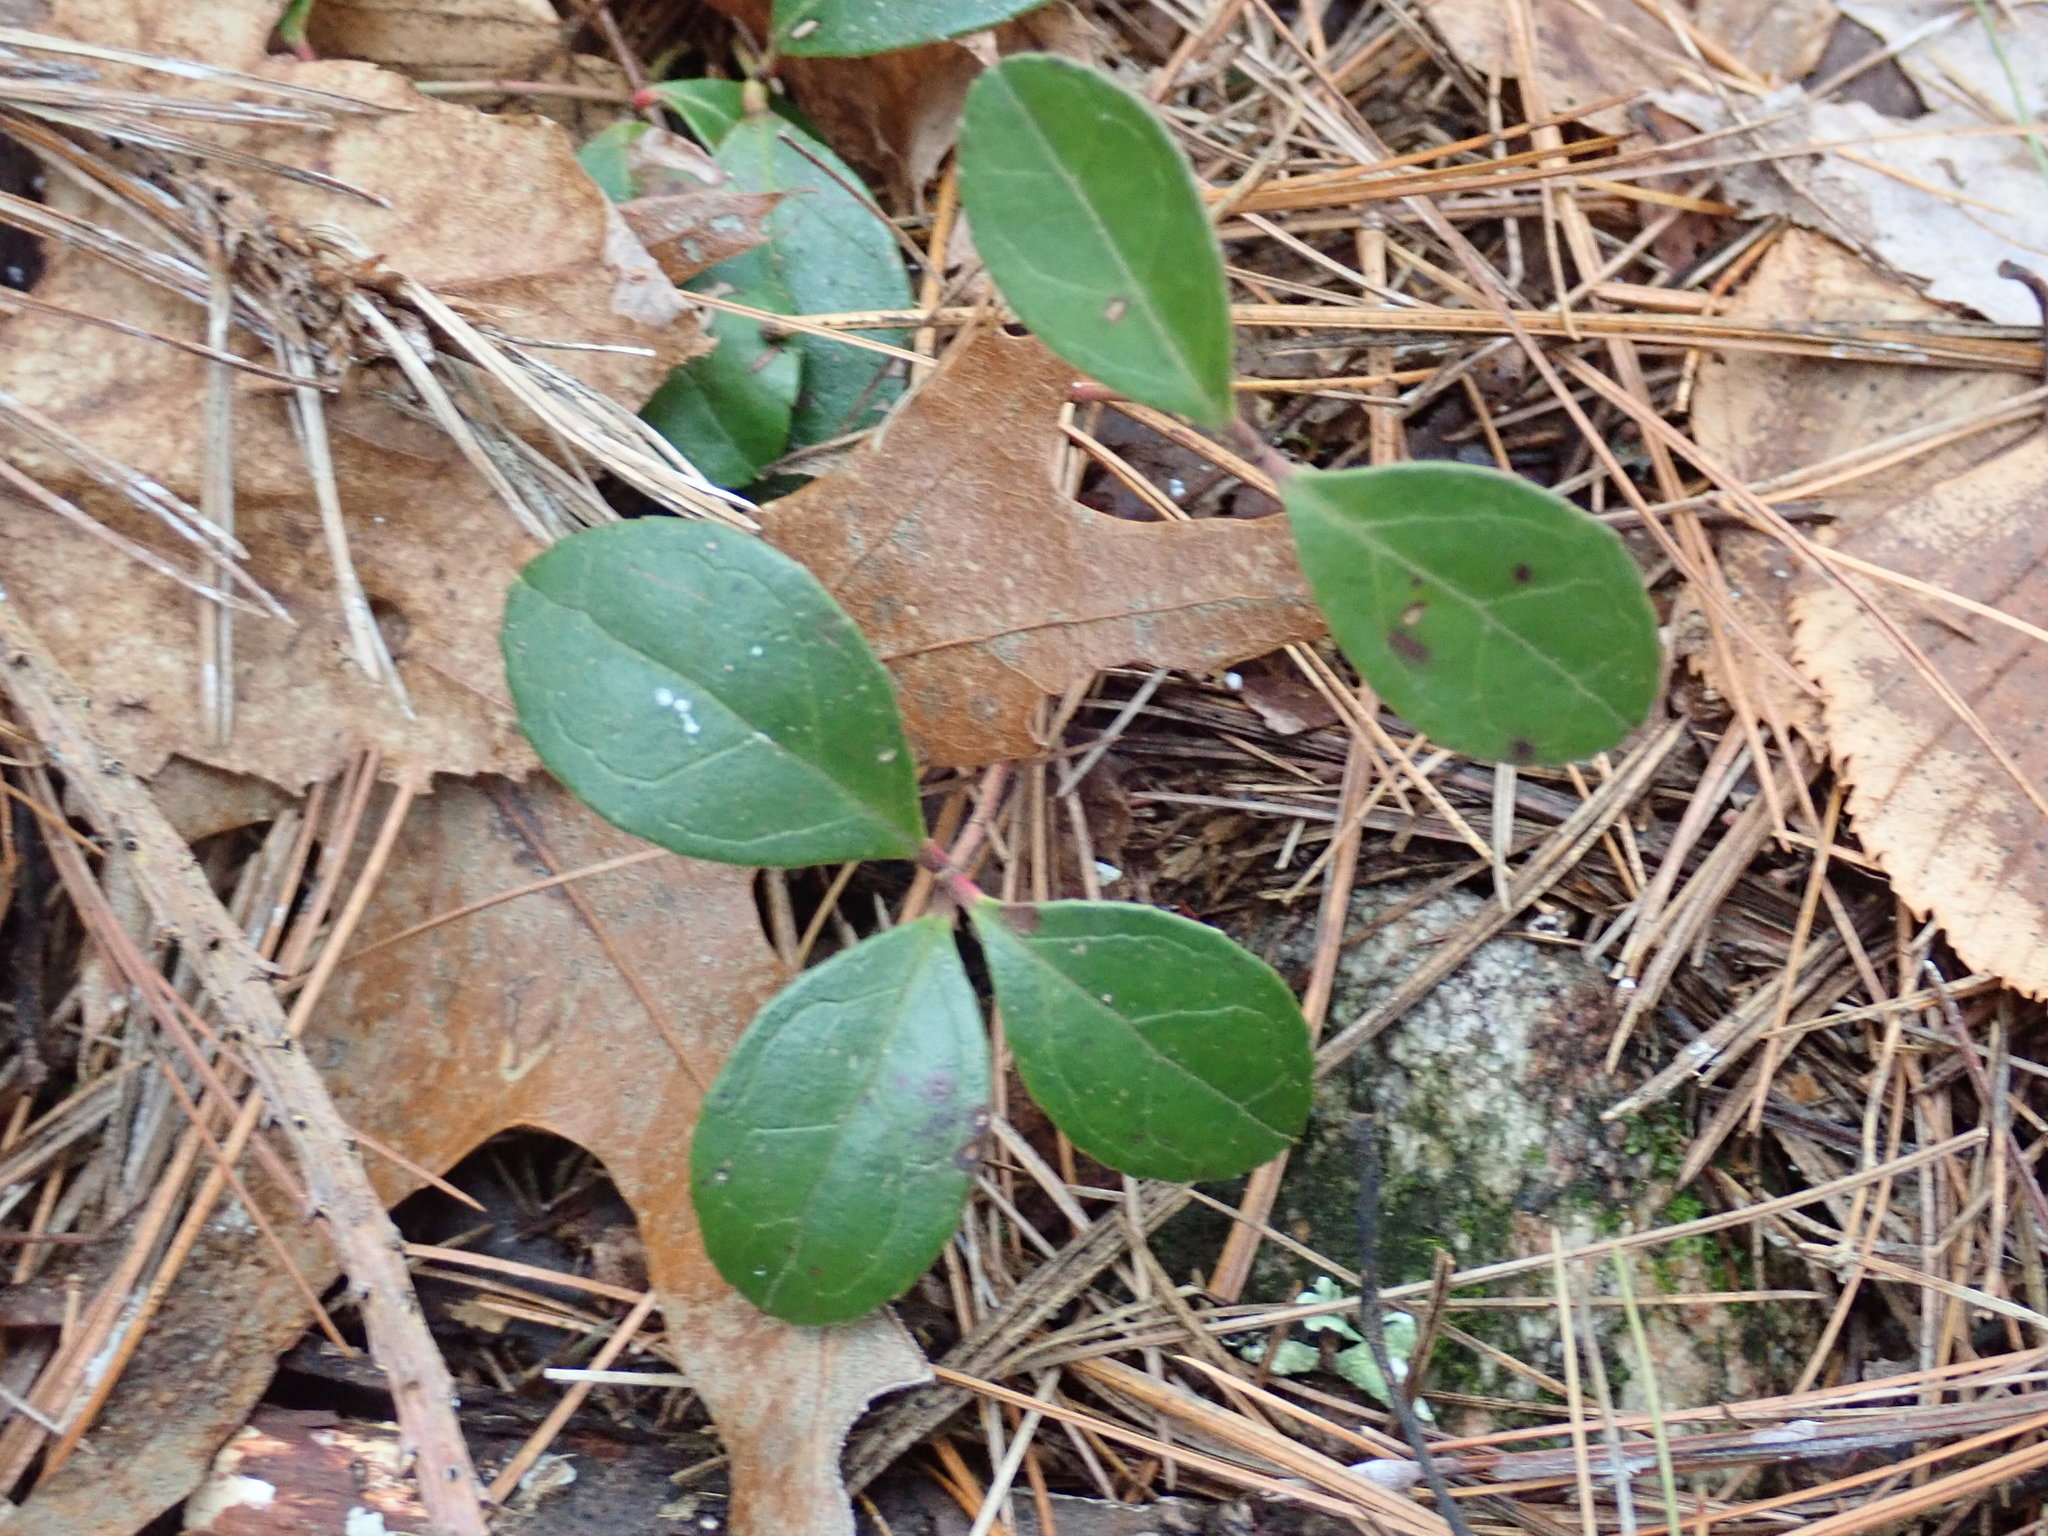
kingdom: Plantae
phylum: Tracheophyta
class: Magnoliopsida
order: Ericales
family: Ericaceae
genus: Gaultheria
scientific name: Gaultheria procumbens
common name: Checkerberry
